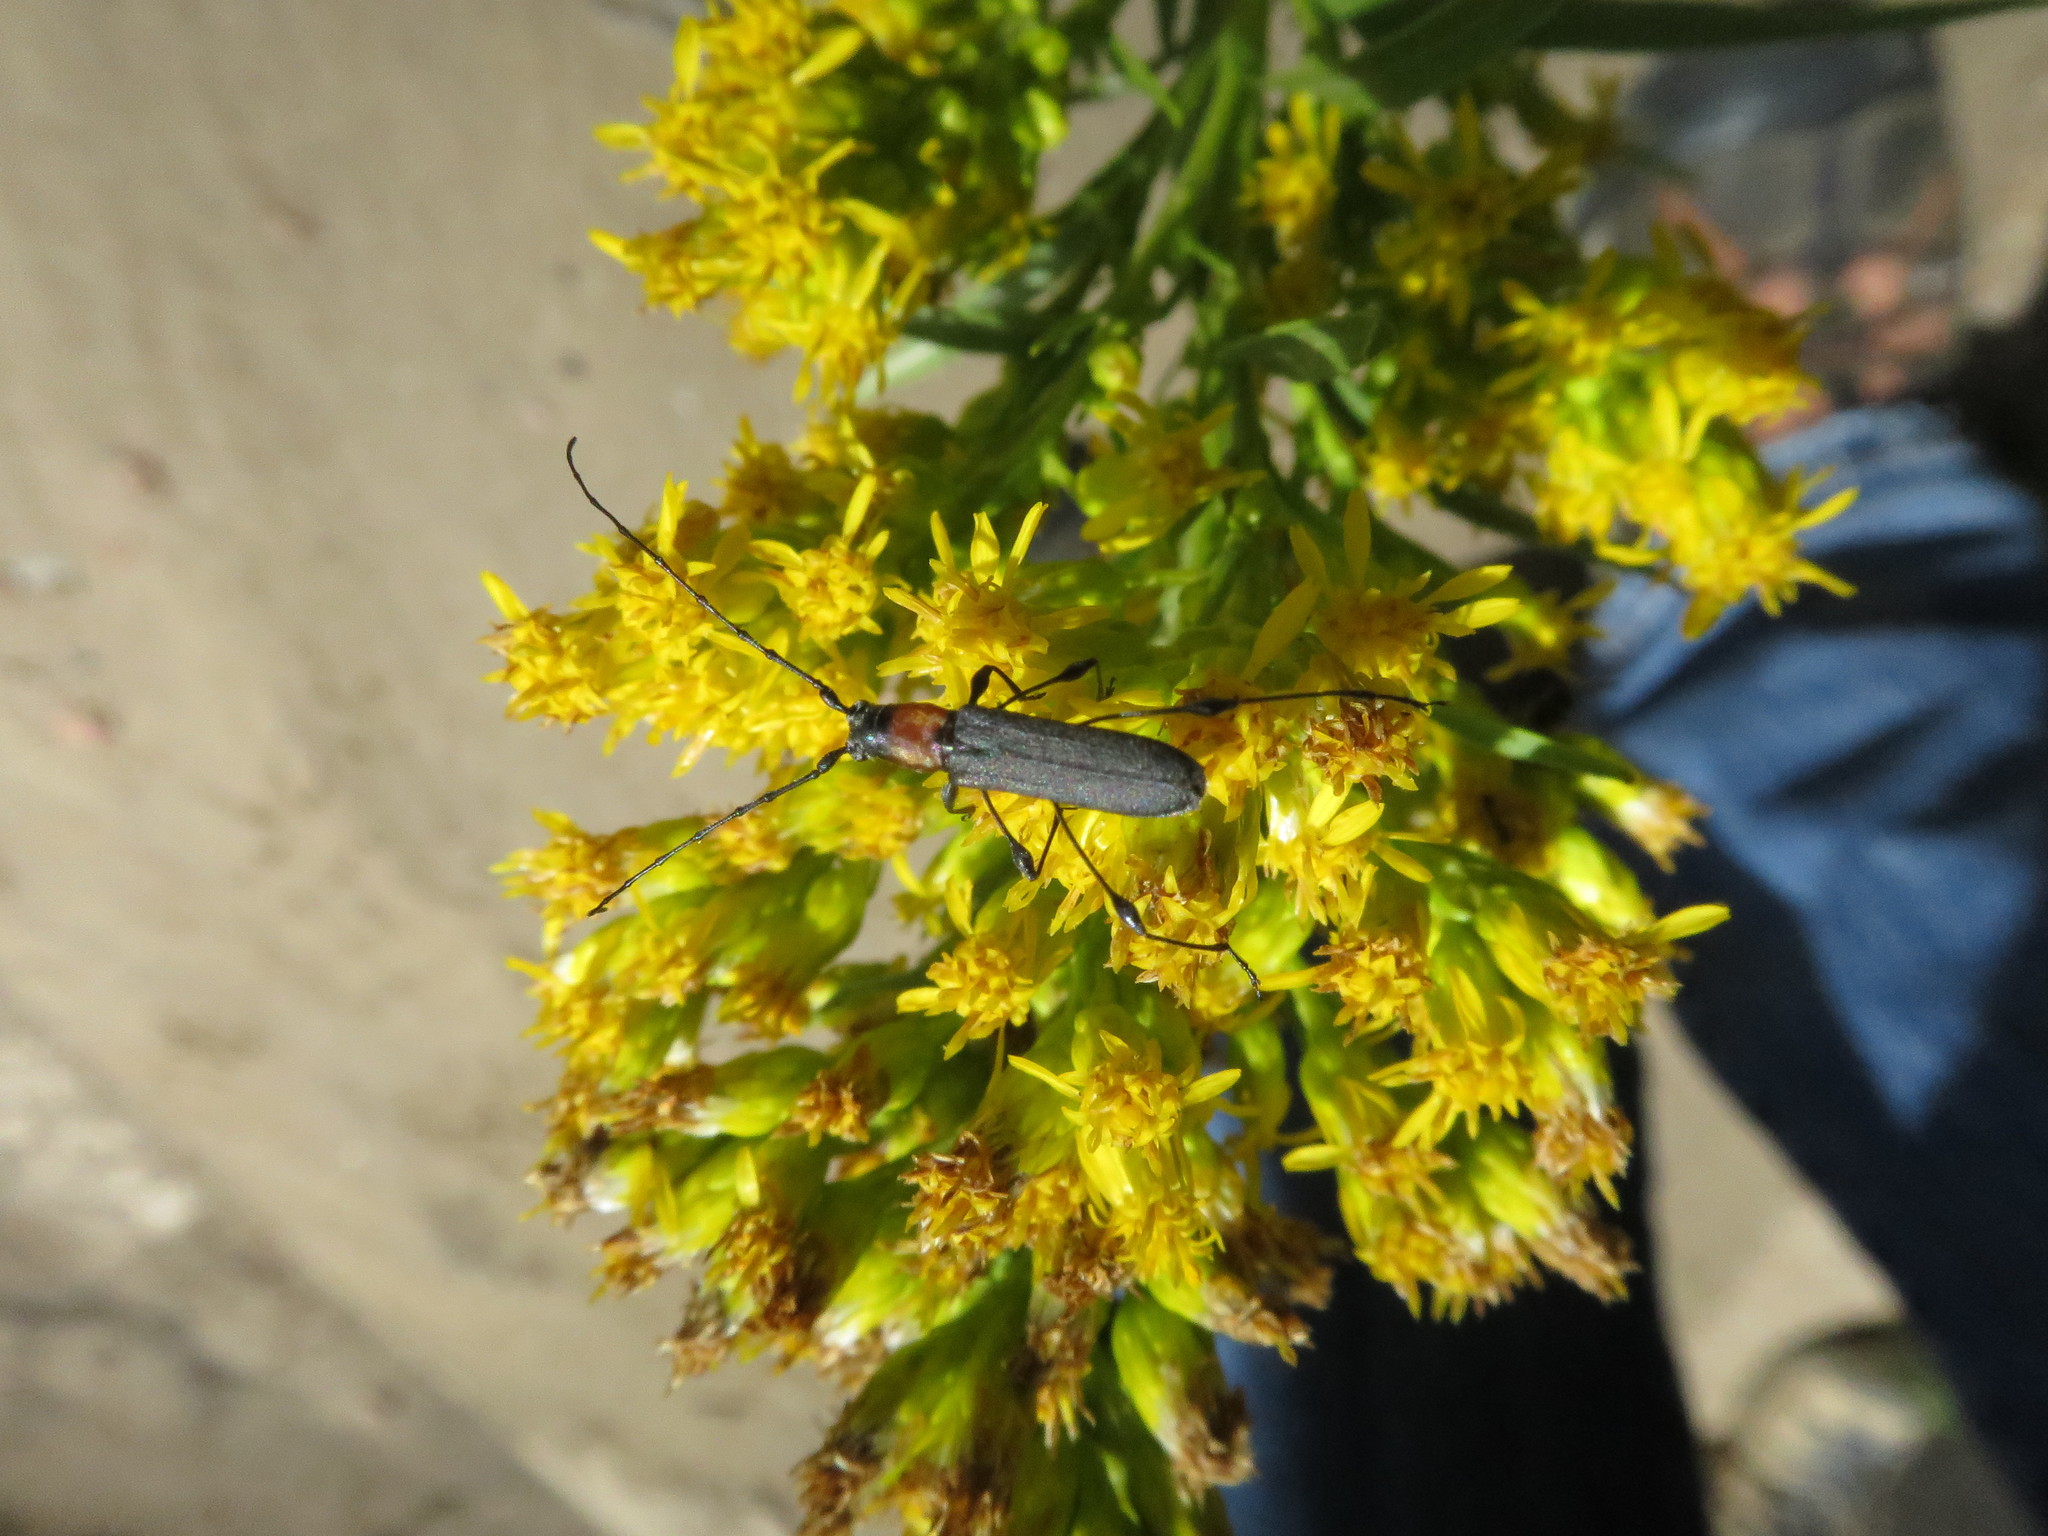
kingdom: Animalia
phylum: Arthropoda
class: Insecta
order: Coleoptera
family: Cerambycidae
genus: Rhopalophora
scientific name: Rhopalophora meeskei
